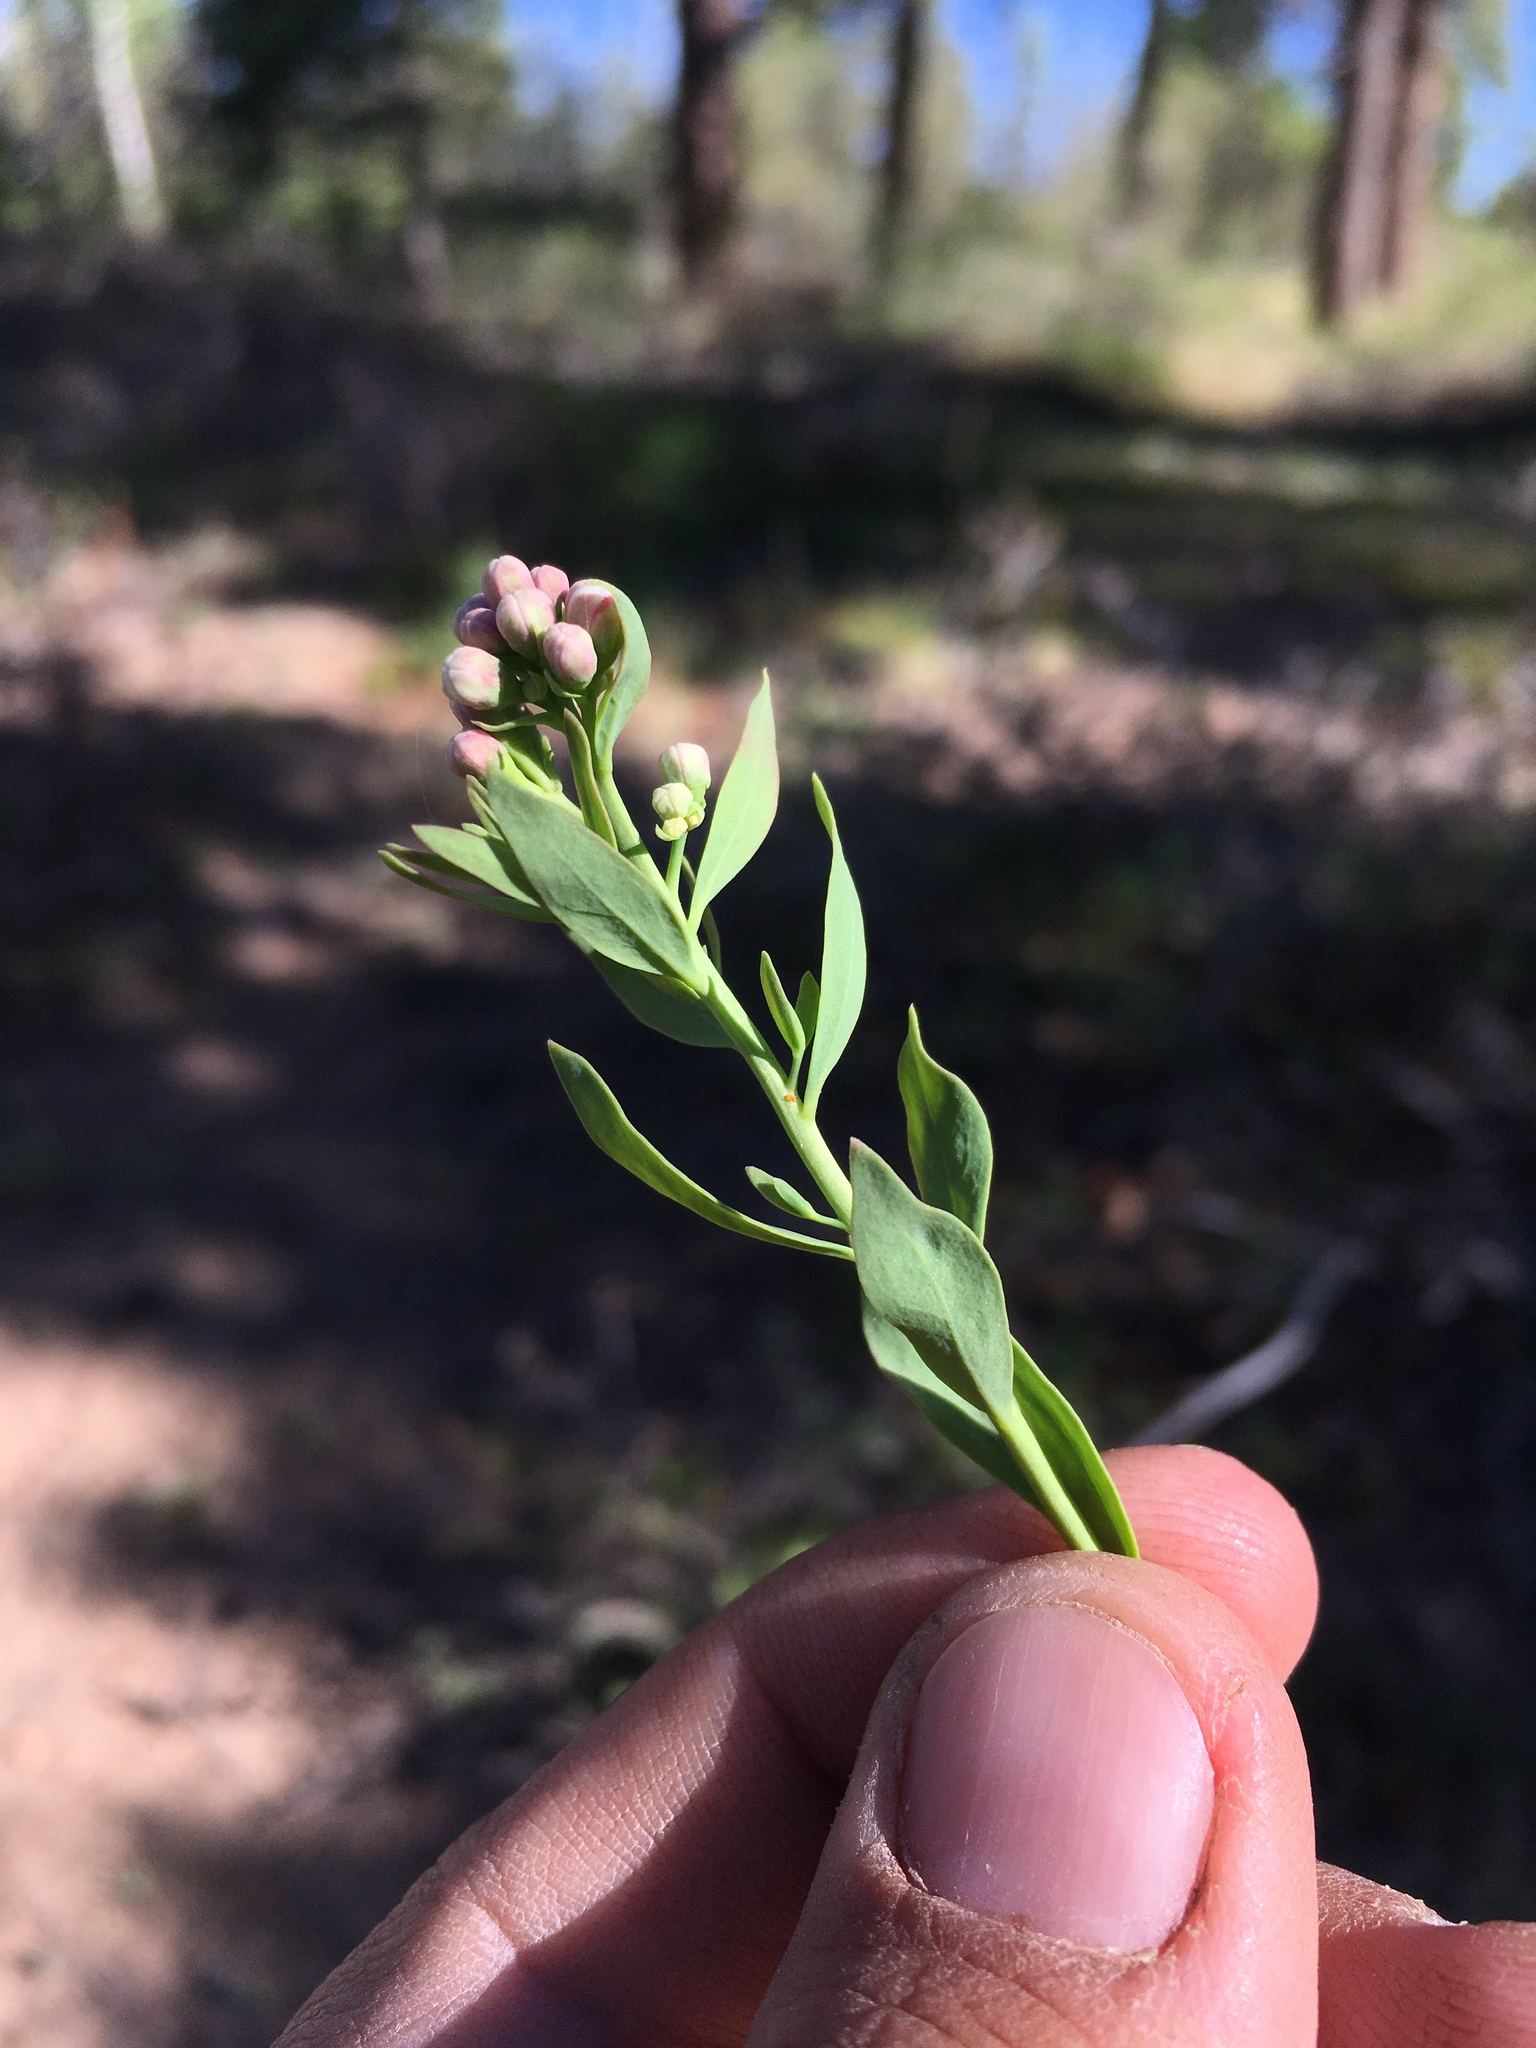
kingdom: Plantae
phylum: Tracheophyta
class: Magnoliopsida
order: Santalales
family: Comandraceae
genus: Comandra
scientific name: Comandra umbellata
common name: Bastard toadflax
